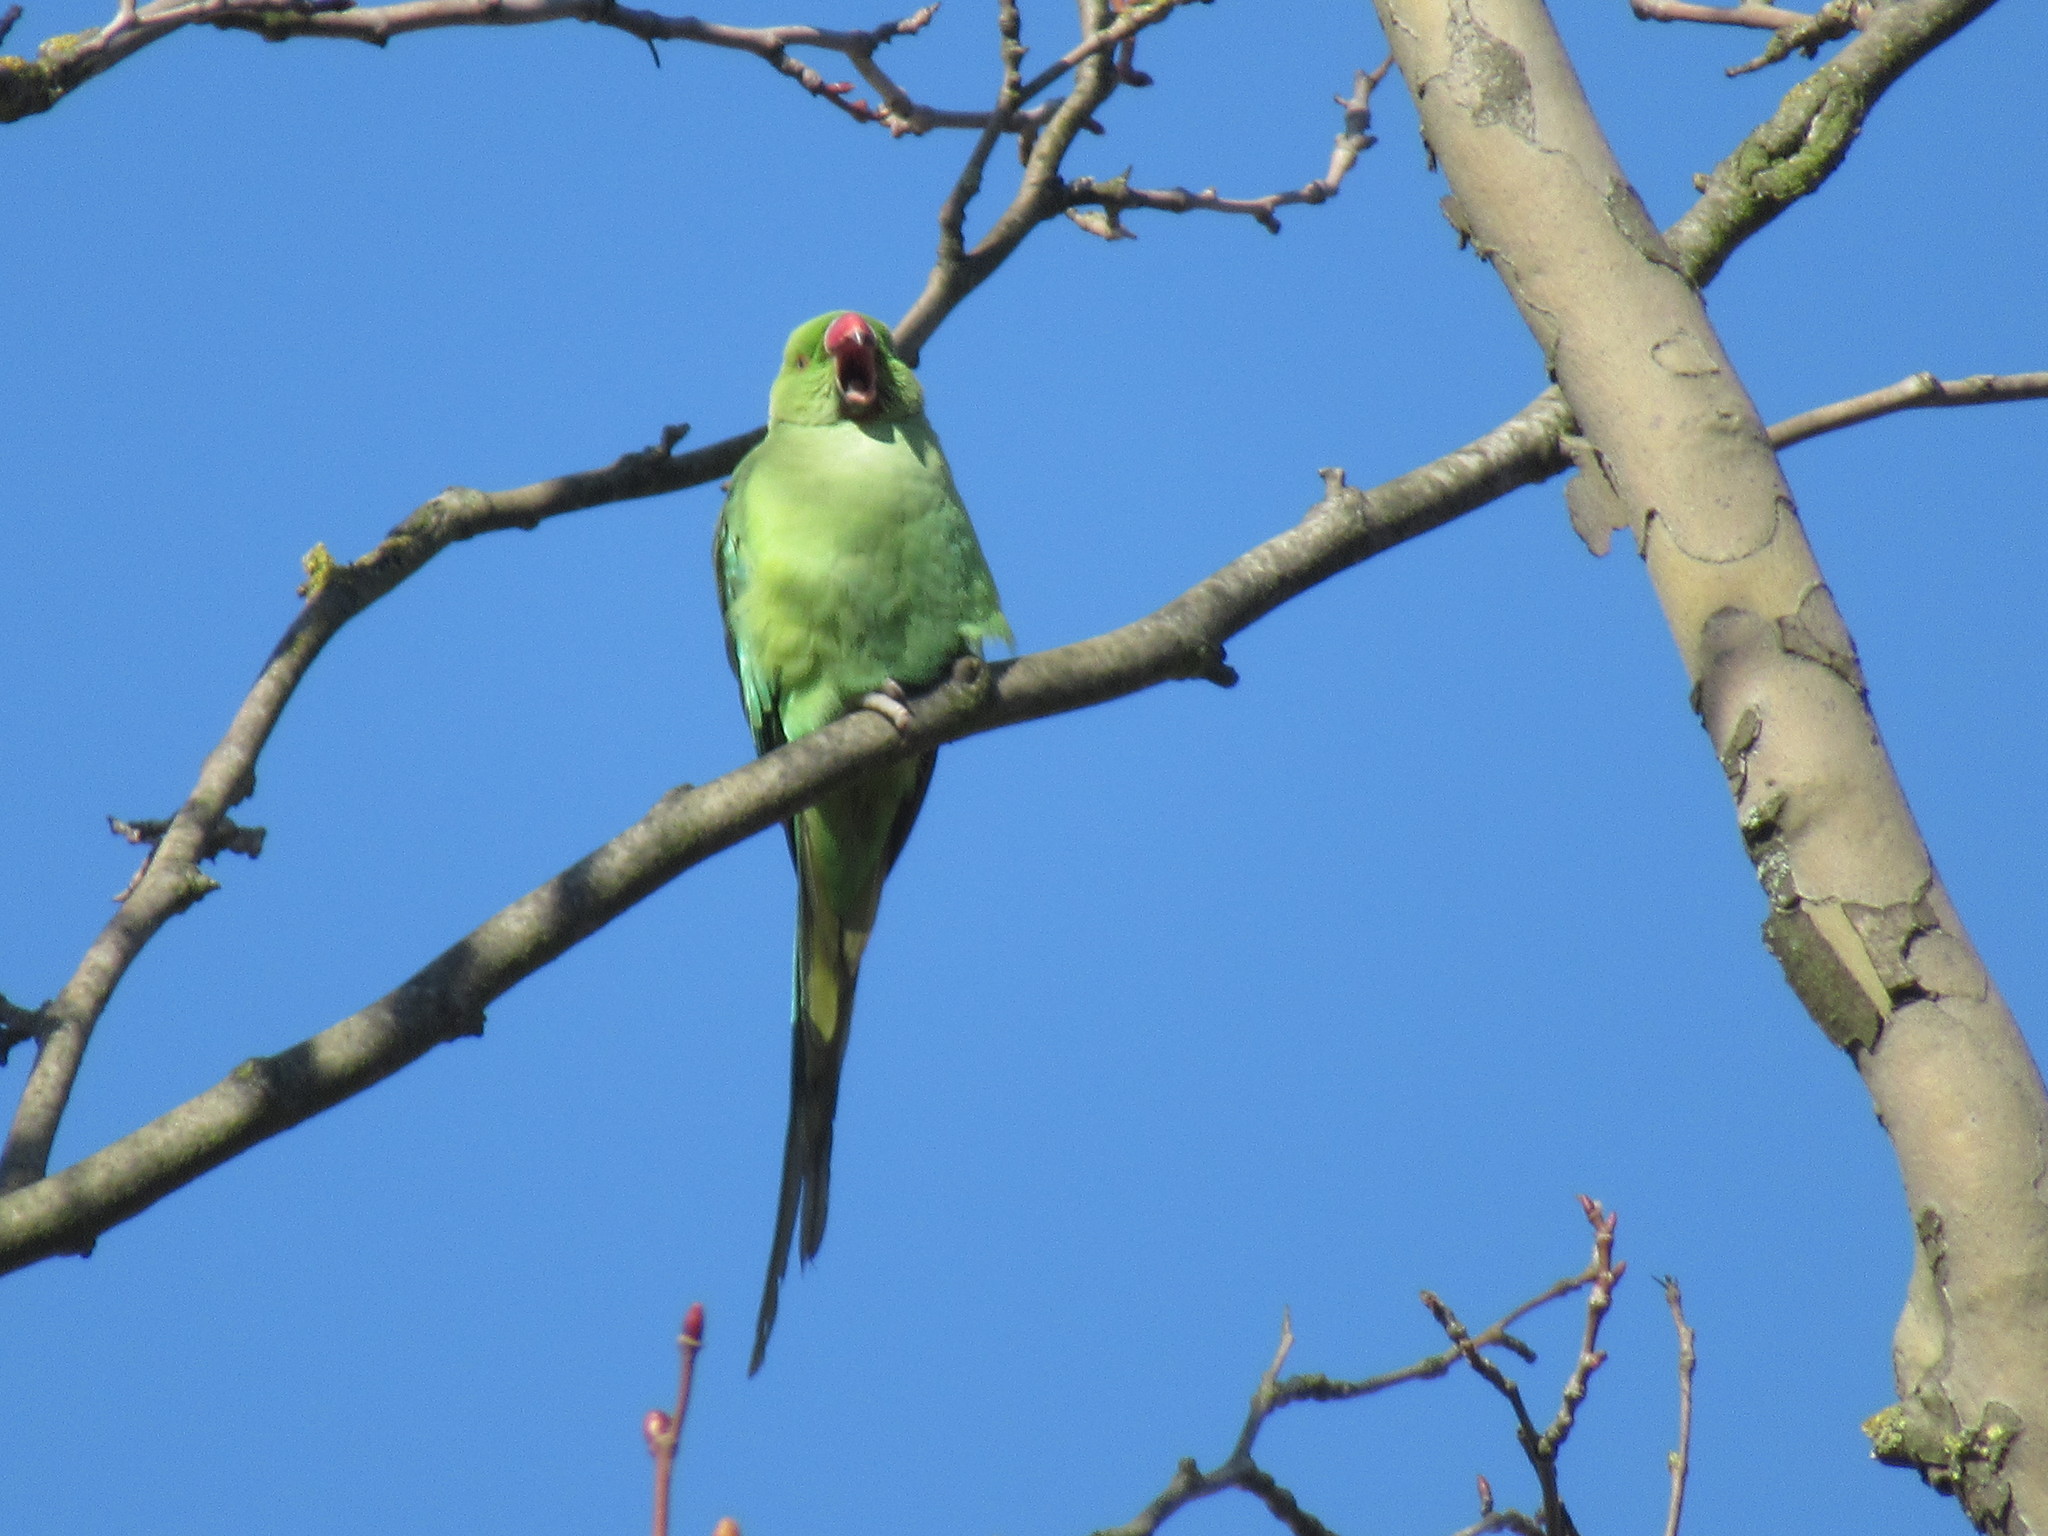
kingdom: Animalia
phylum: Chordata
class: Aves
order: Psittaciformes
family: Psittacidae
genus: Psittacula
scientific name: Psittacula krameri
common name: Rose-ringed parakeet
